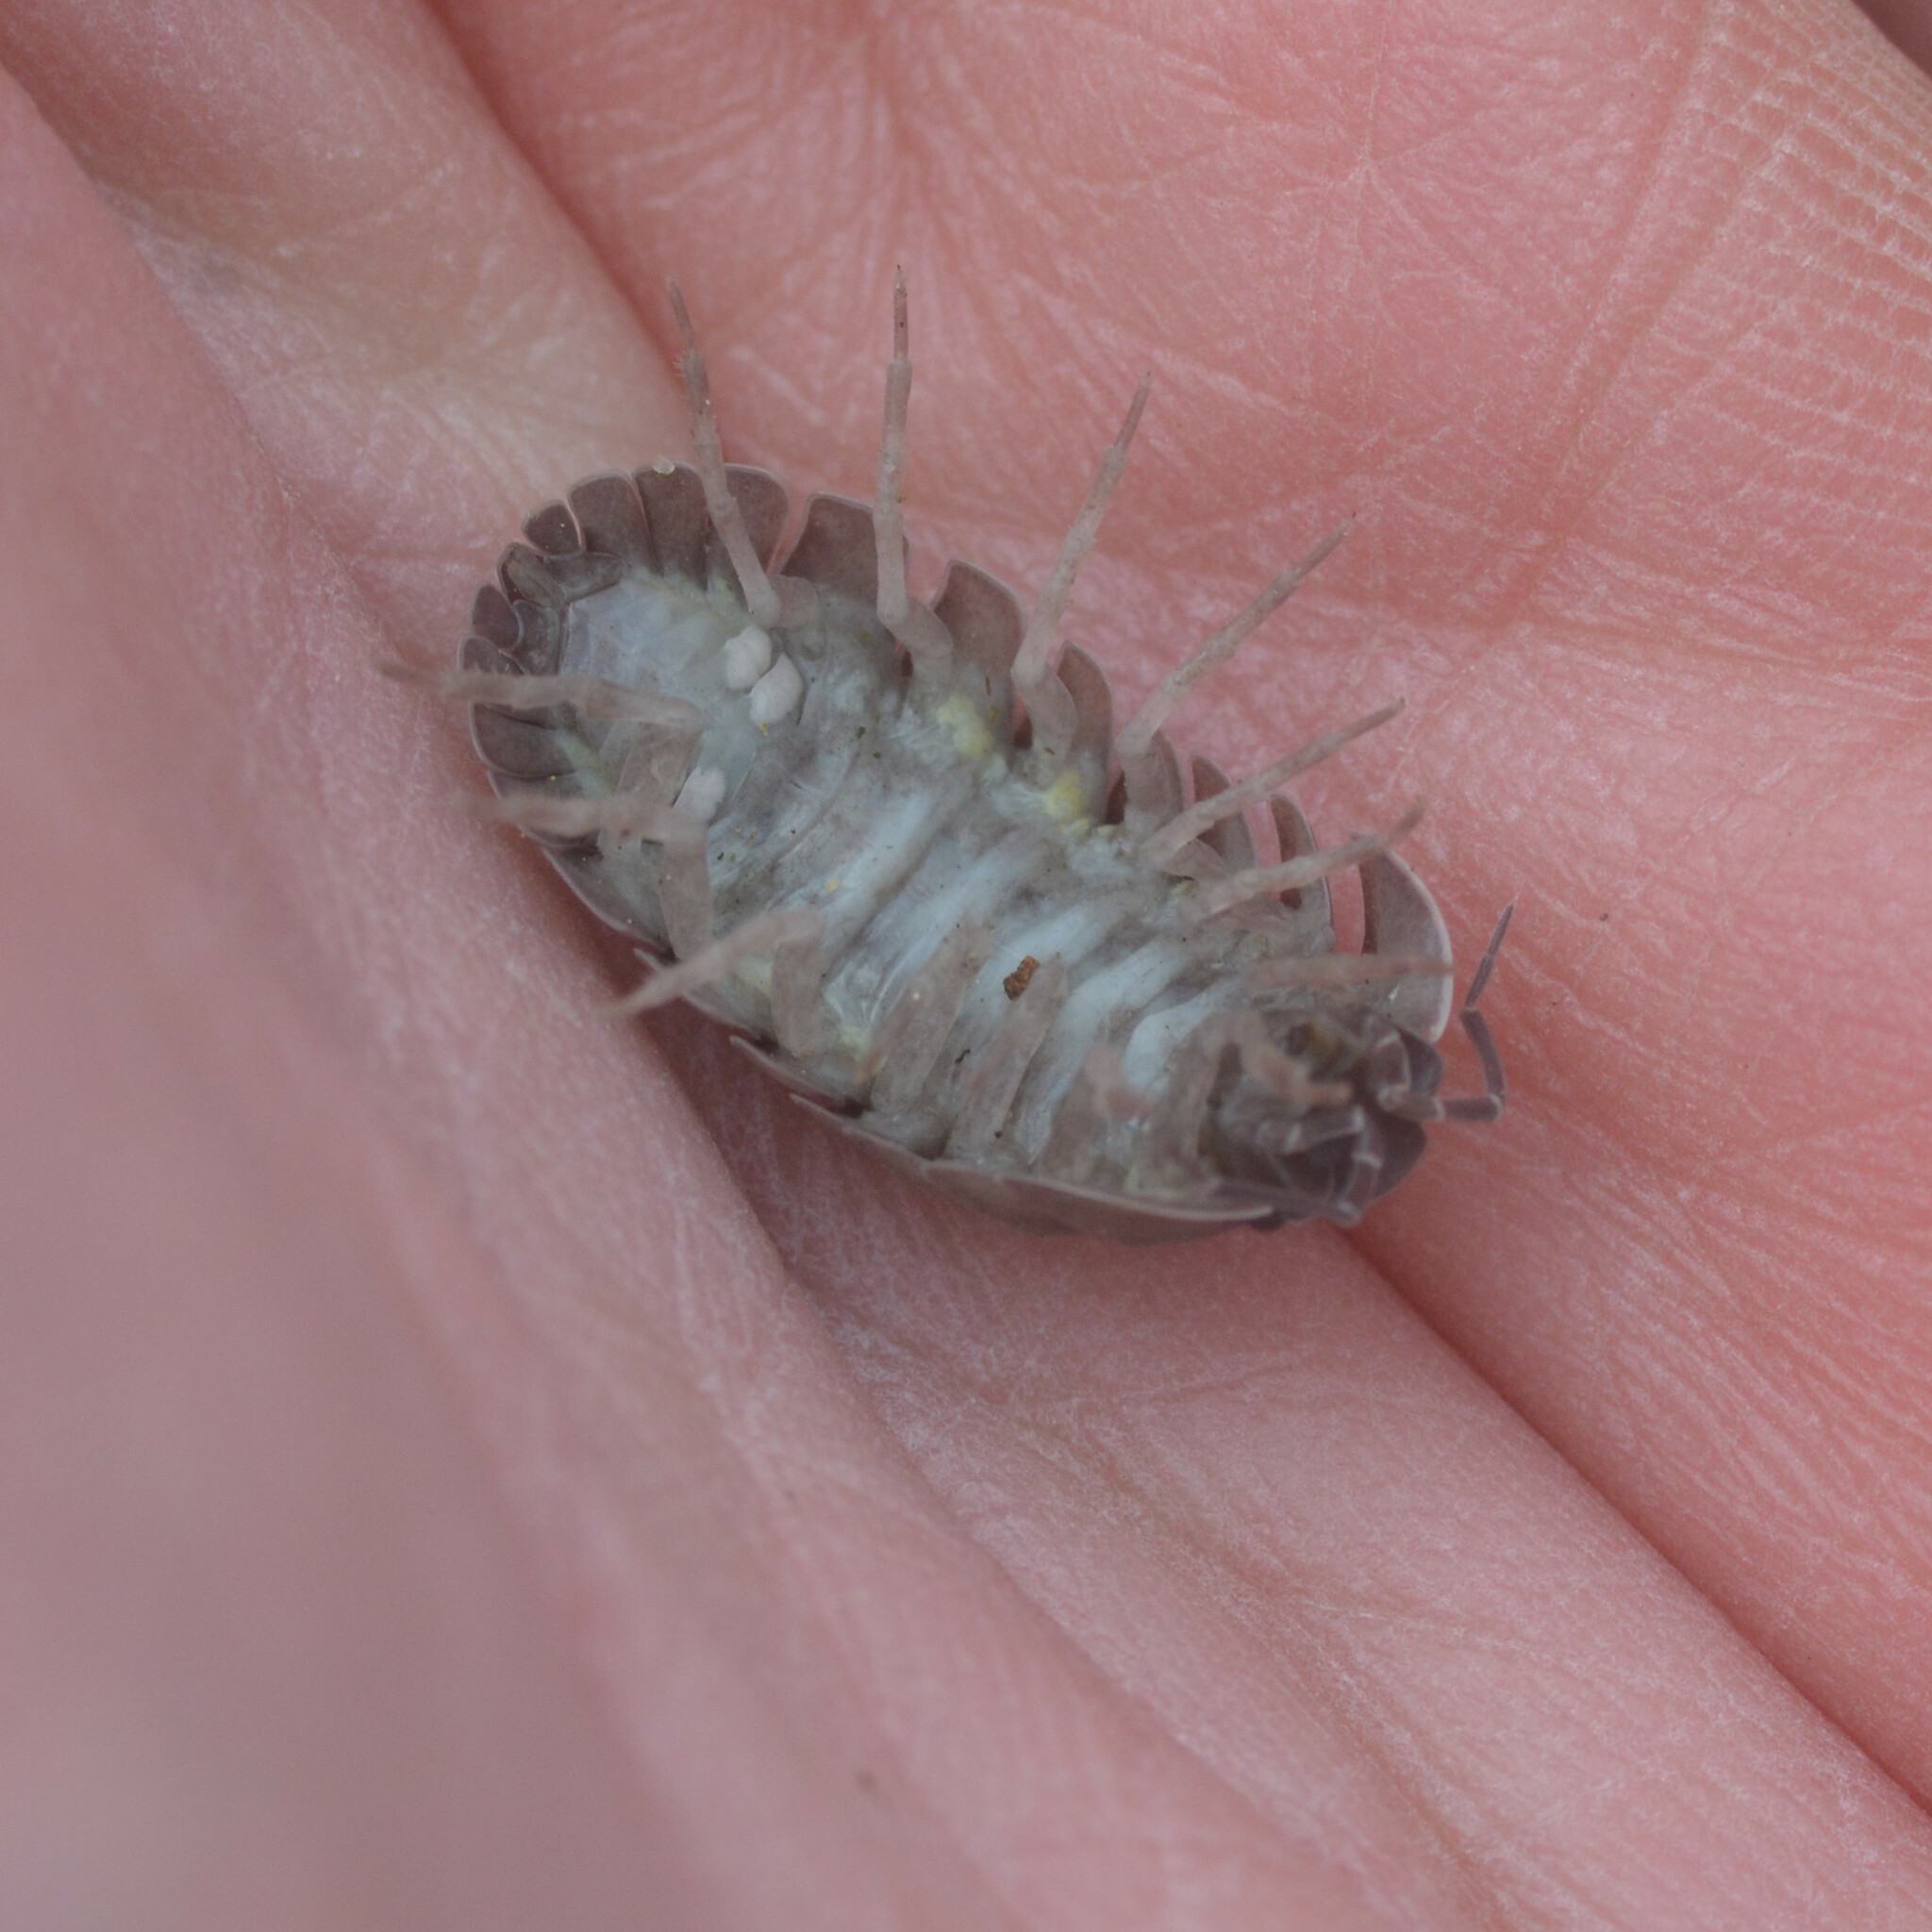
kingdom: Animalia
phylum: Arthropoda
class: Malacostraca
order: Isopoda
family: Armadillidiidae
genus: Armadillidium
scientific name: Armadillidium depressum
